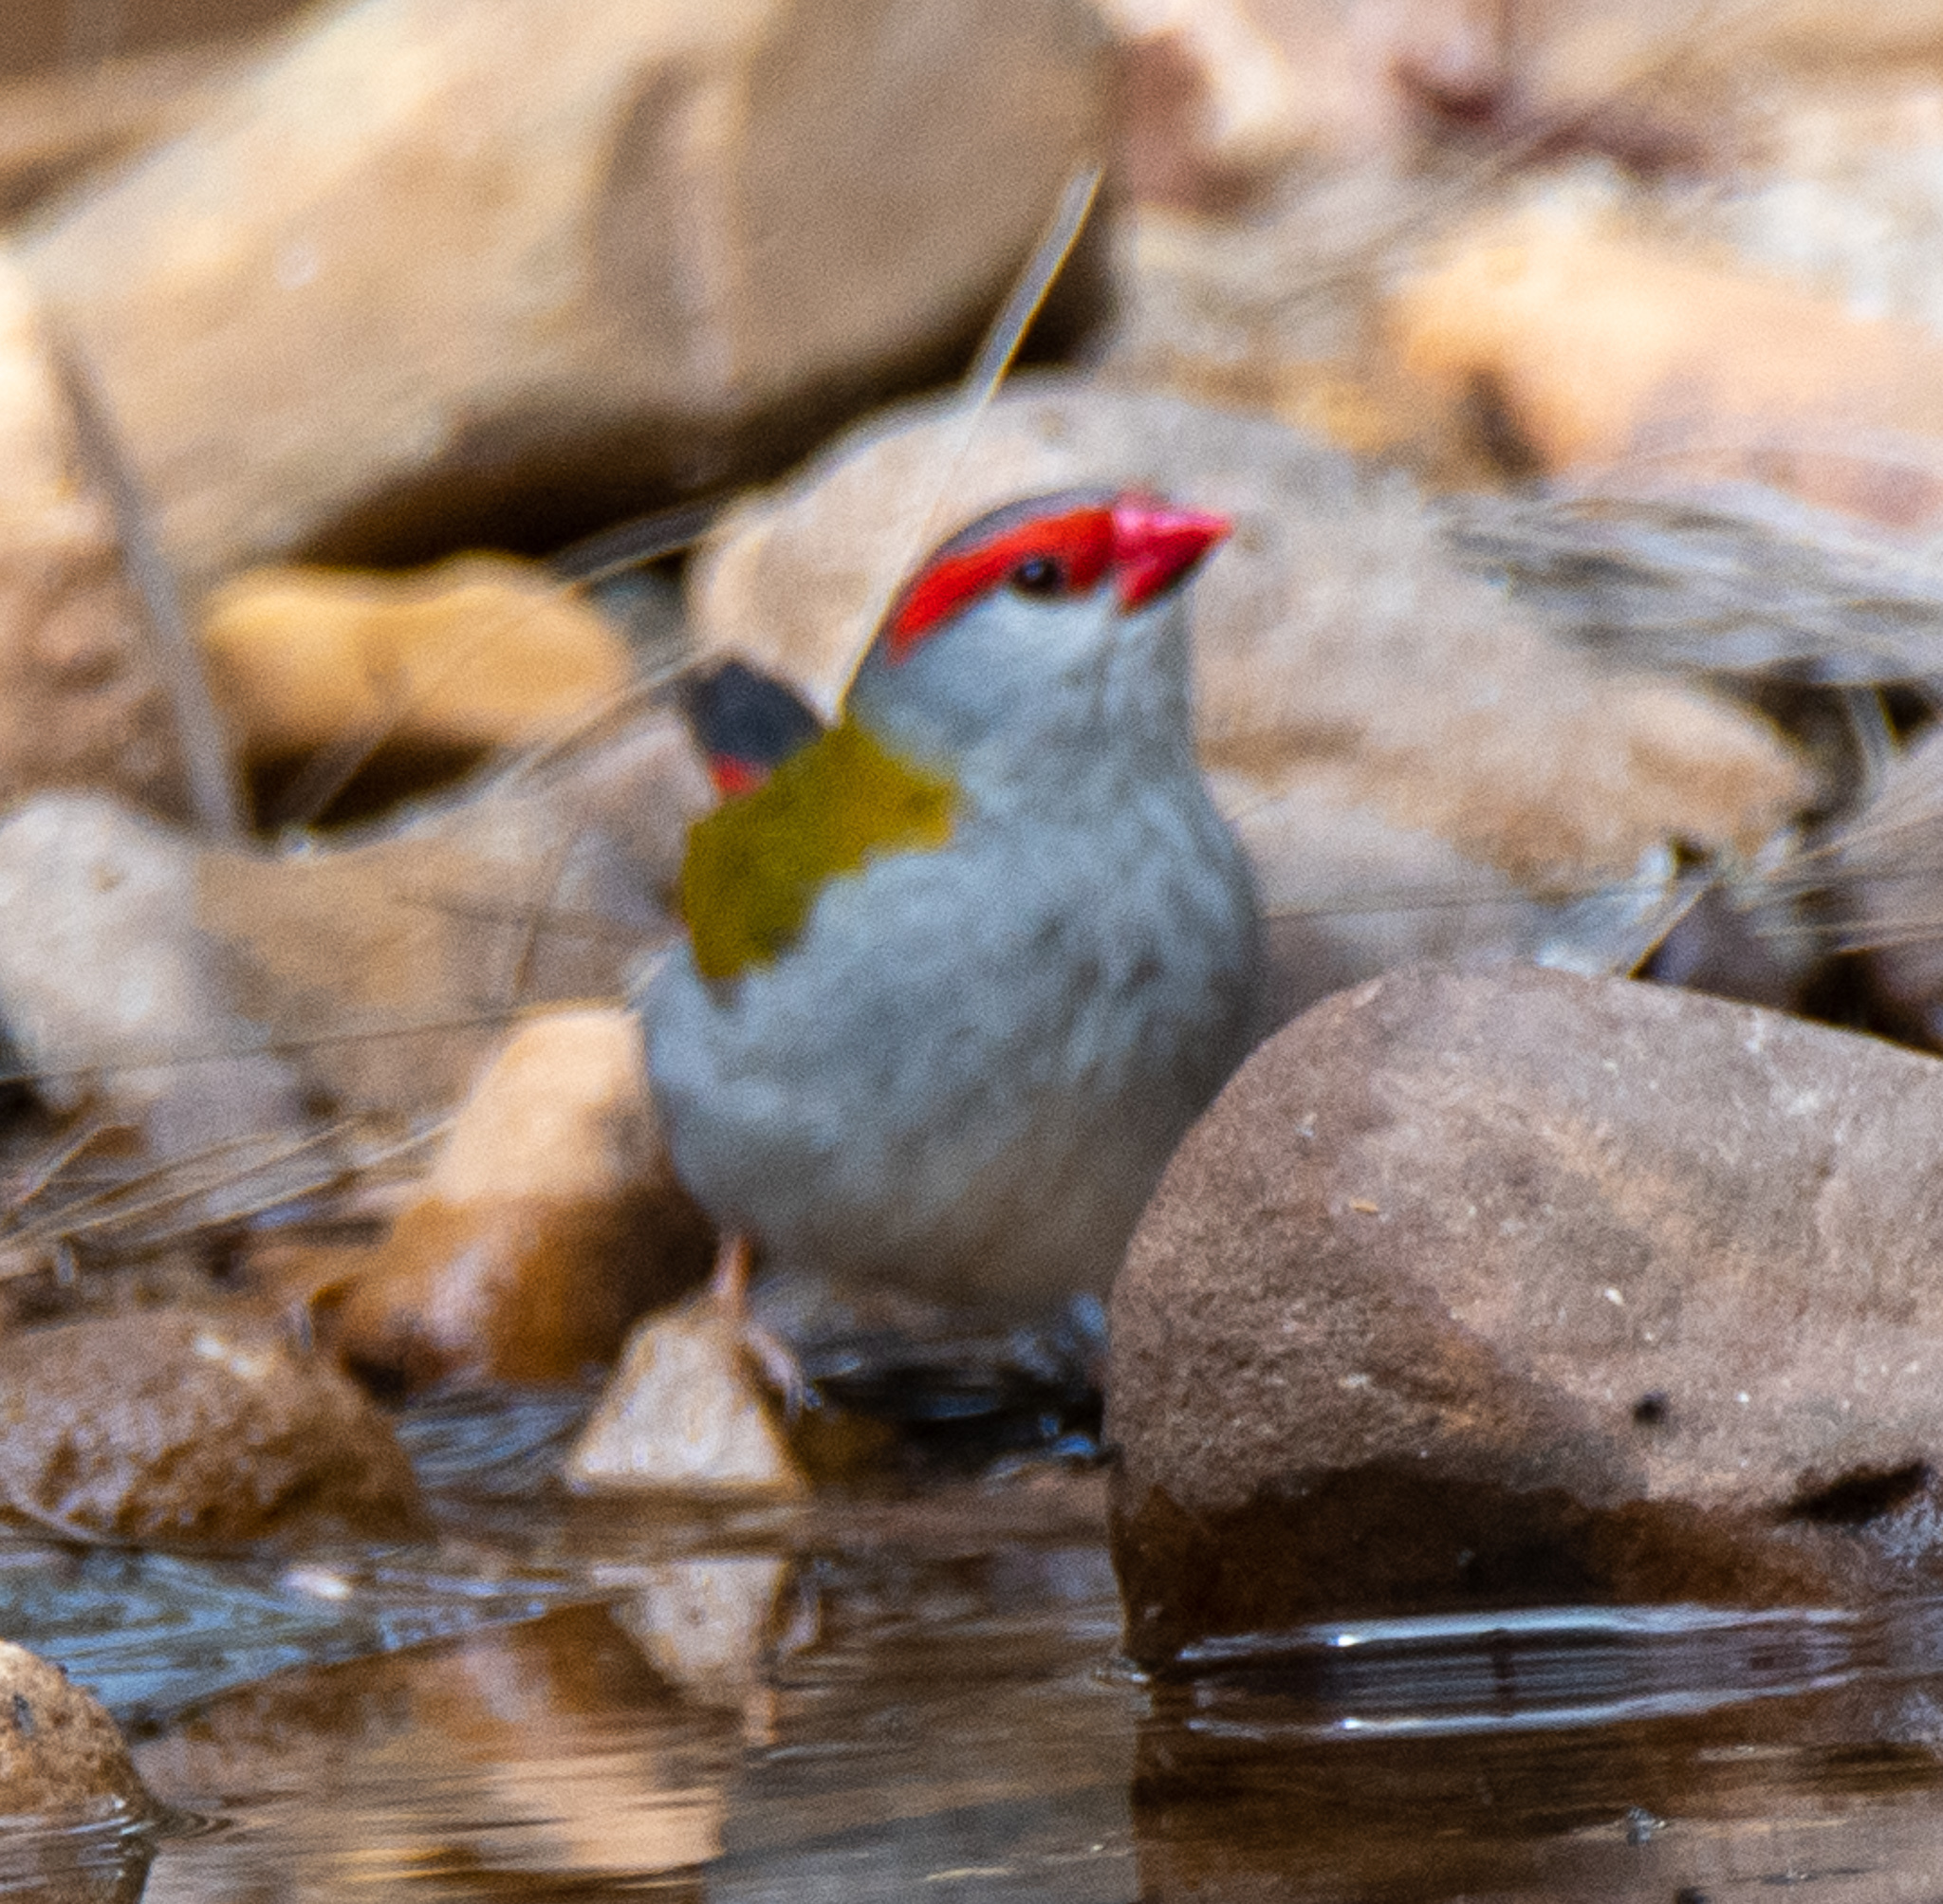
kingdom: Animalia
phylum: Chordata
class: Aves
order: Passeriformes
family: Estrildidae
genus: Neochmia
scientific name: Neochmia temporalis
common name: Red-browed finch
